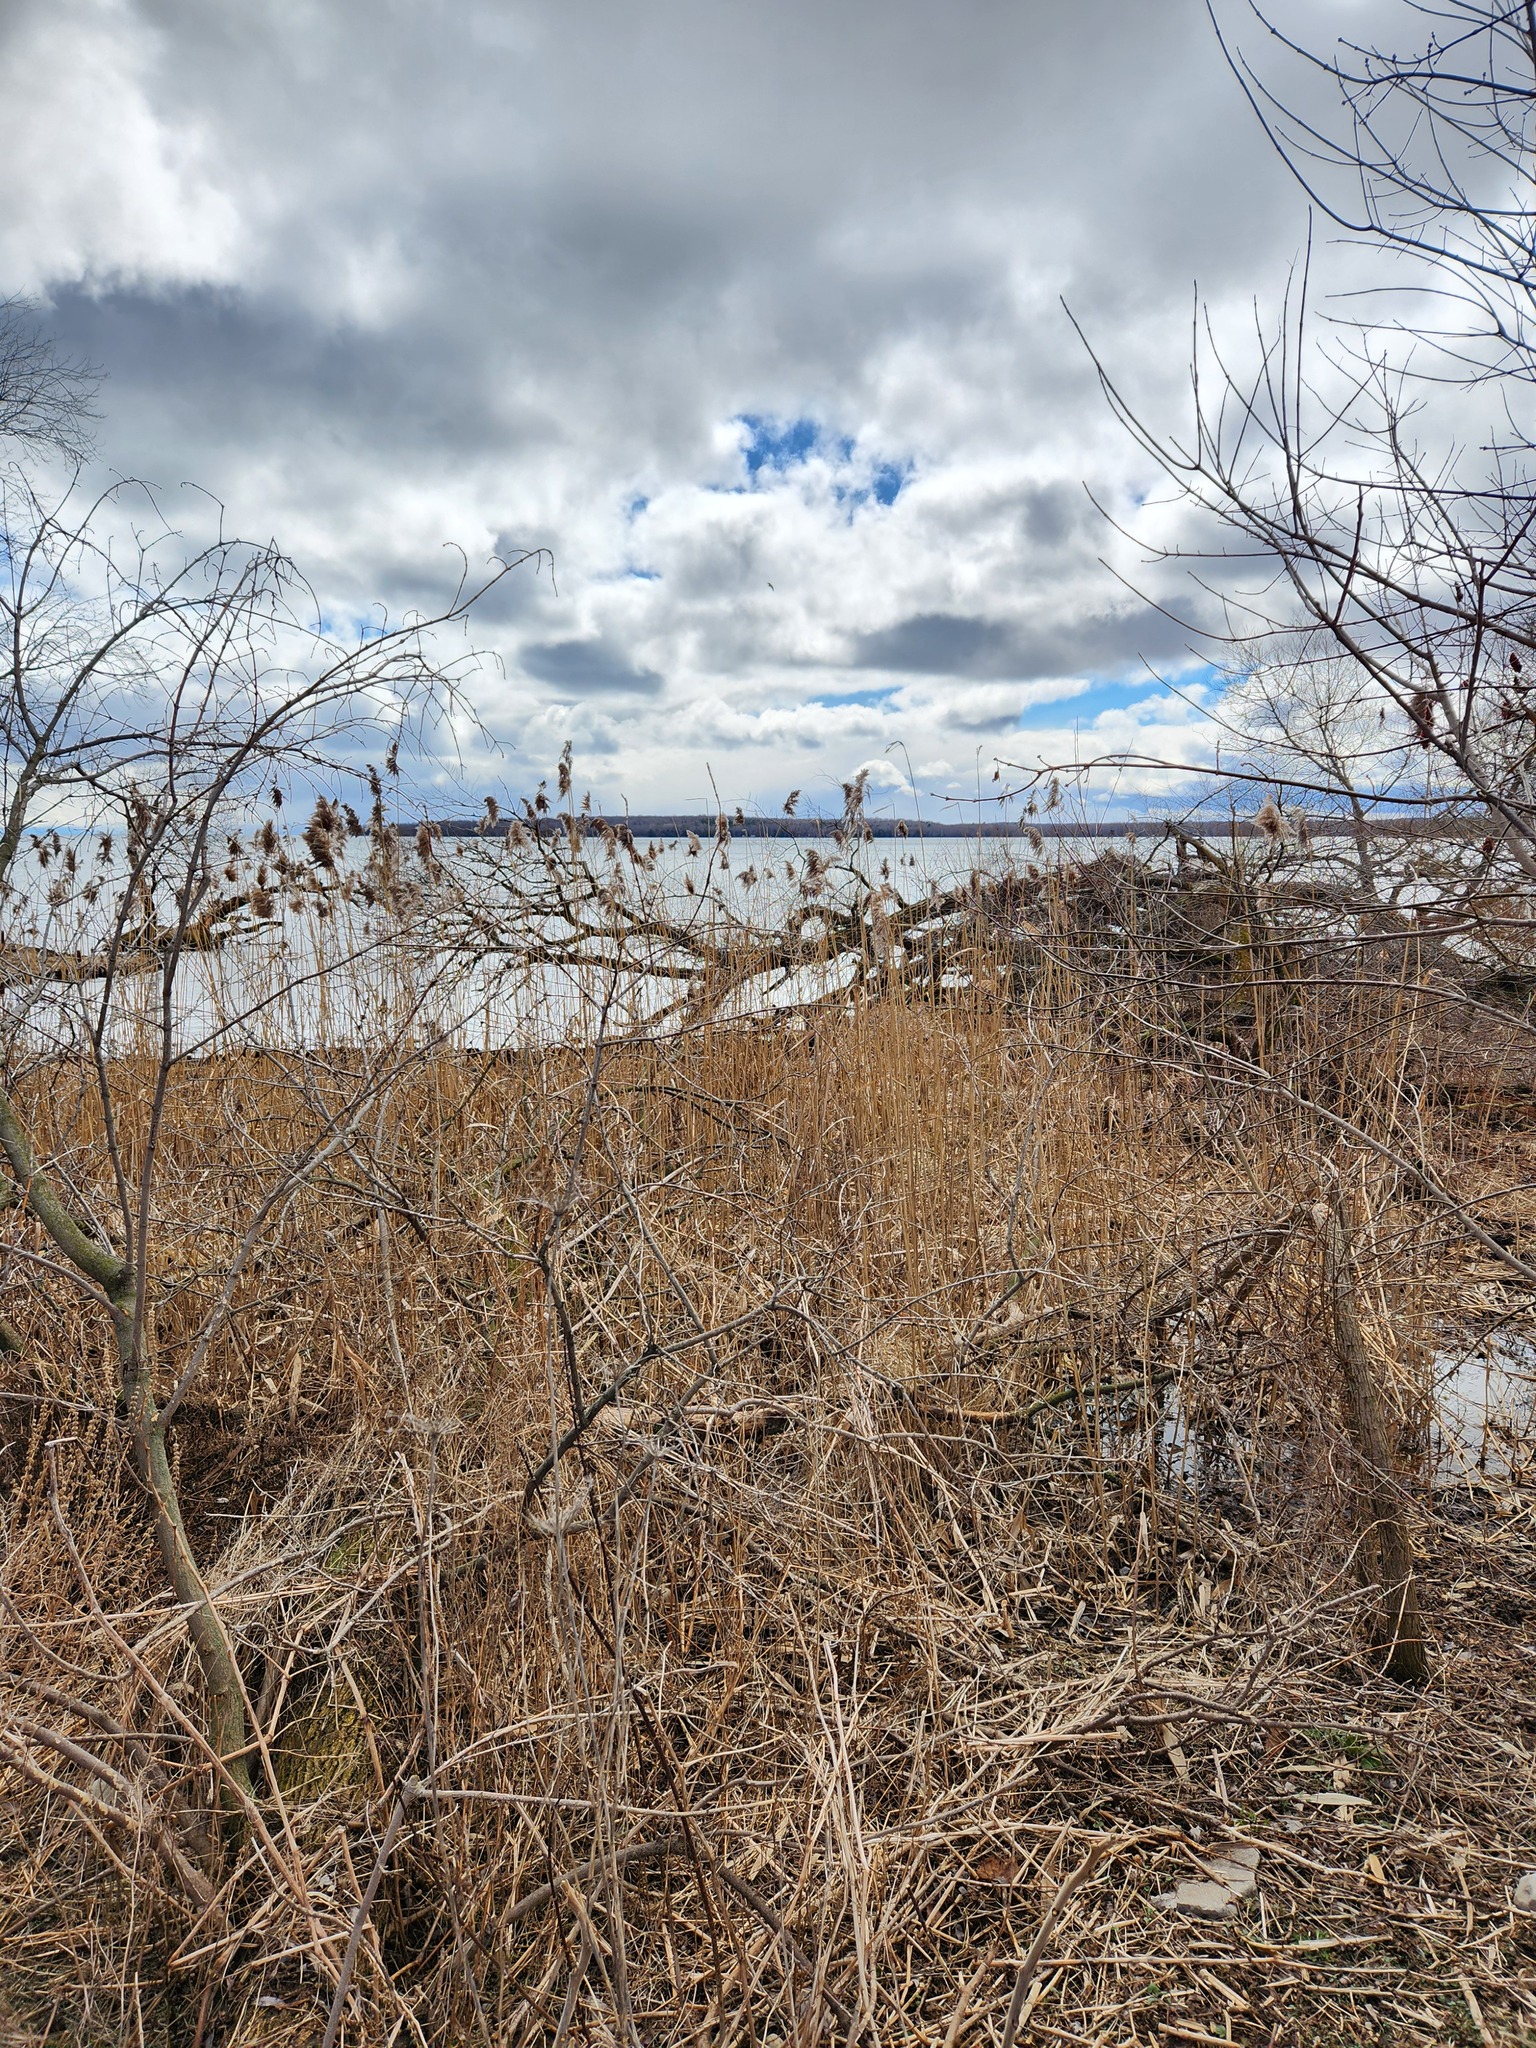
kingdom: Plantae
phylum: Tracheophyta
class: Liliopsida
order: Poales
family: Poaceae
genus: Phragmites
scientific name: Phragmites australis
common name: Common reed
